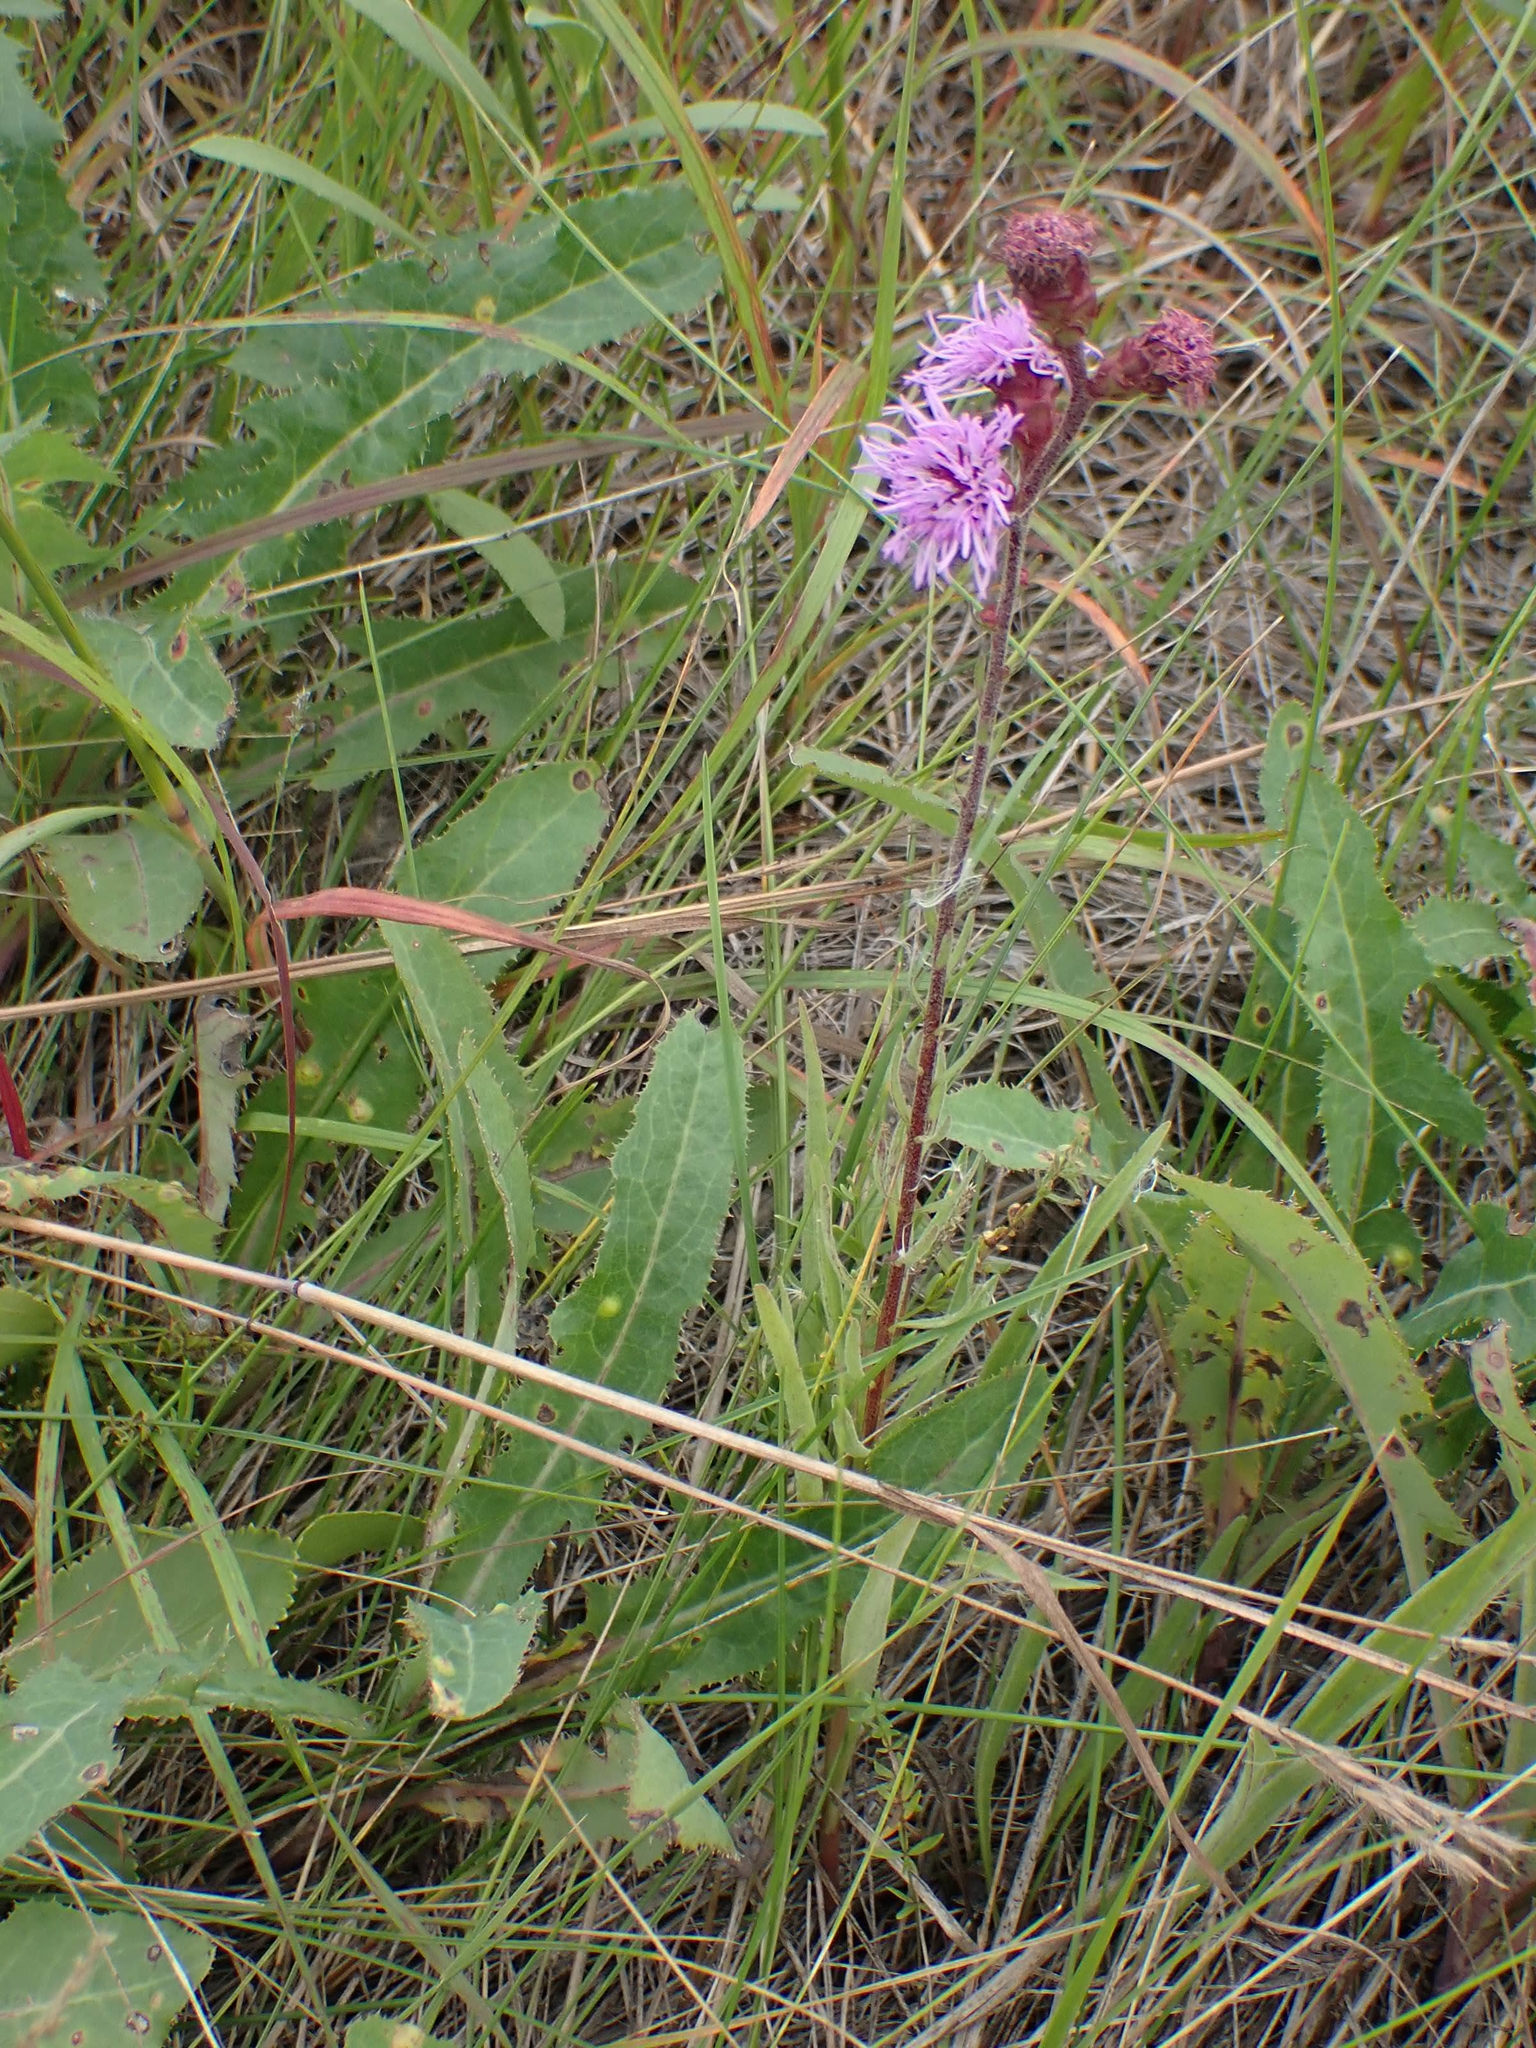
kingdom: Plantae
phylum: Tracheophyta
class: Magnoliopsida
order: Asterales
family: Asteraceae
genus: Liatris
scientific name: Liatris ligulistylis
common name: Northern plains gayfeather
